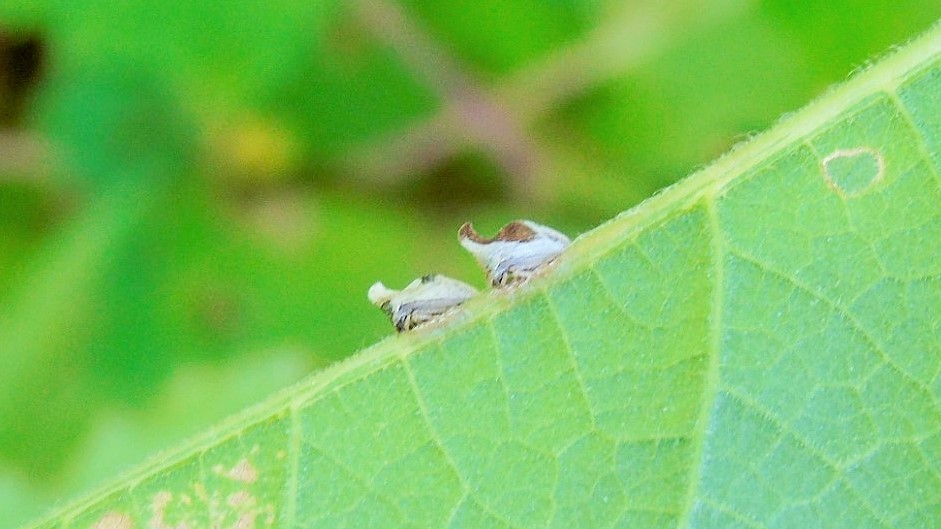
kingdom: Animalia
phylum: Arthropoda
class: Insecta
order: Hemiptera
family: Membracidae
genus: Entylia
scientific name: Entylia
